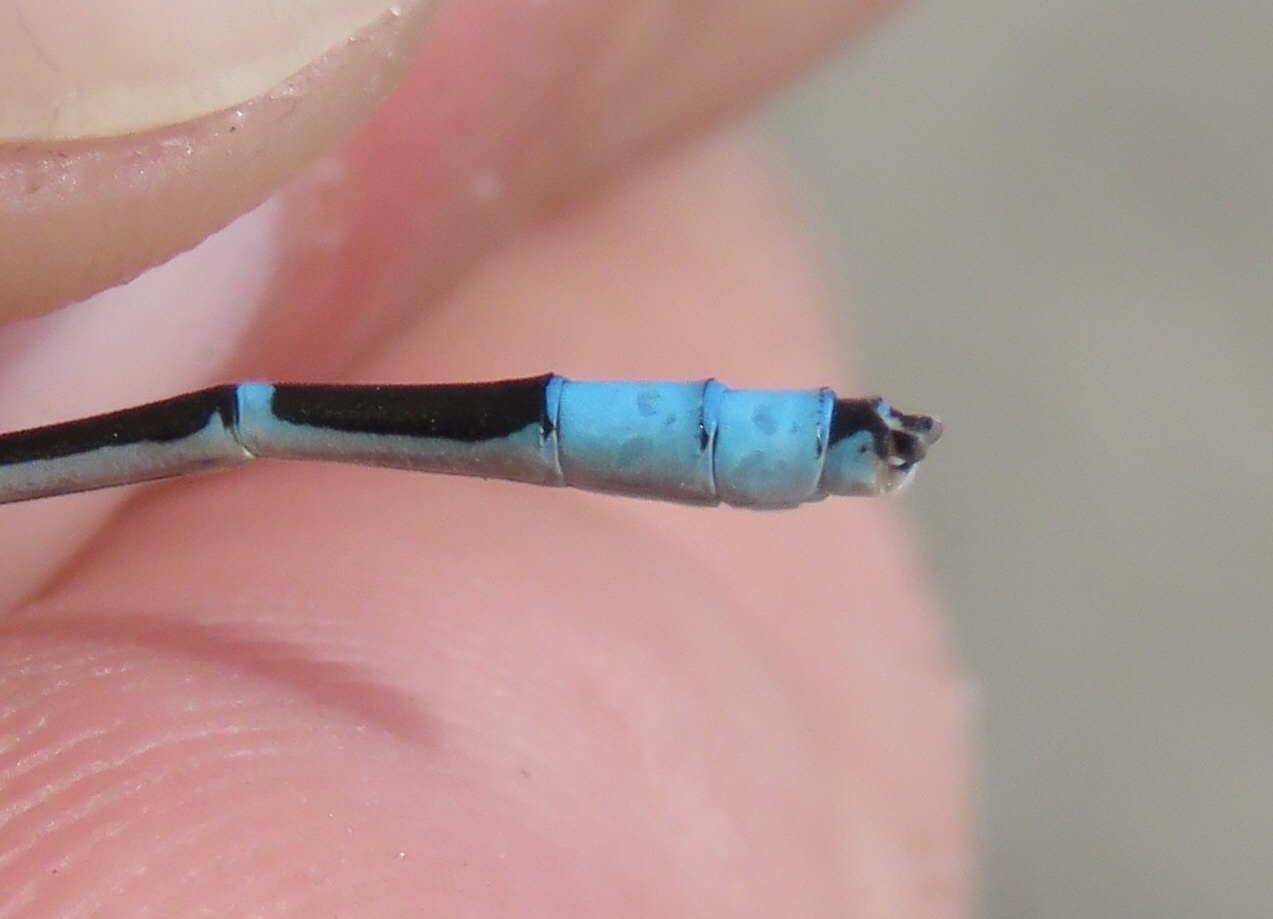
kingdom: Animalia
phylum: Arthropoda
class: Insecta
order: Odonata
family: Coenagrionidae
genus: Enallagma
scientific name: Enallagma carunculatum
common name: Tule bluet
